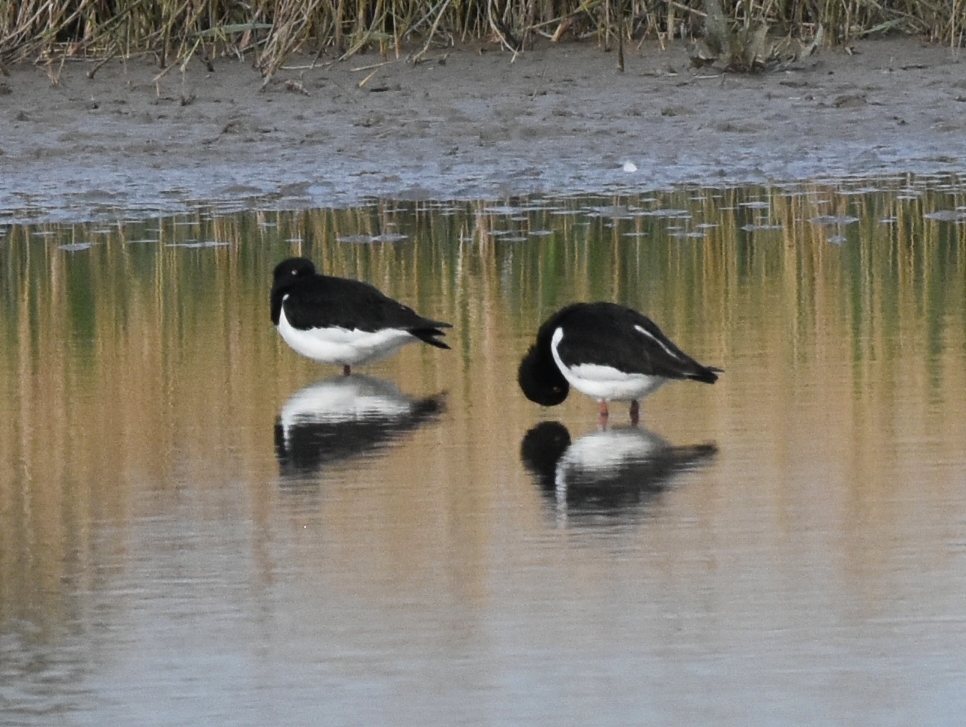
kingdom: Animalia
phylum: Chordata
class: Aves
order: Charadriiformes
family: Haematopodidae
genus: Haematopus
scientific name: Haematopus ostralegus
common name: Eurasian oystercatcher
